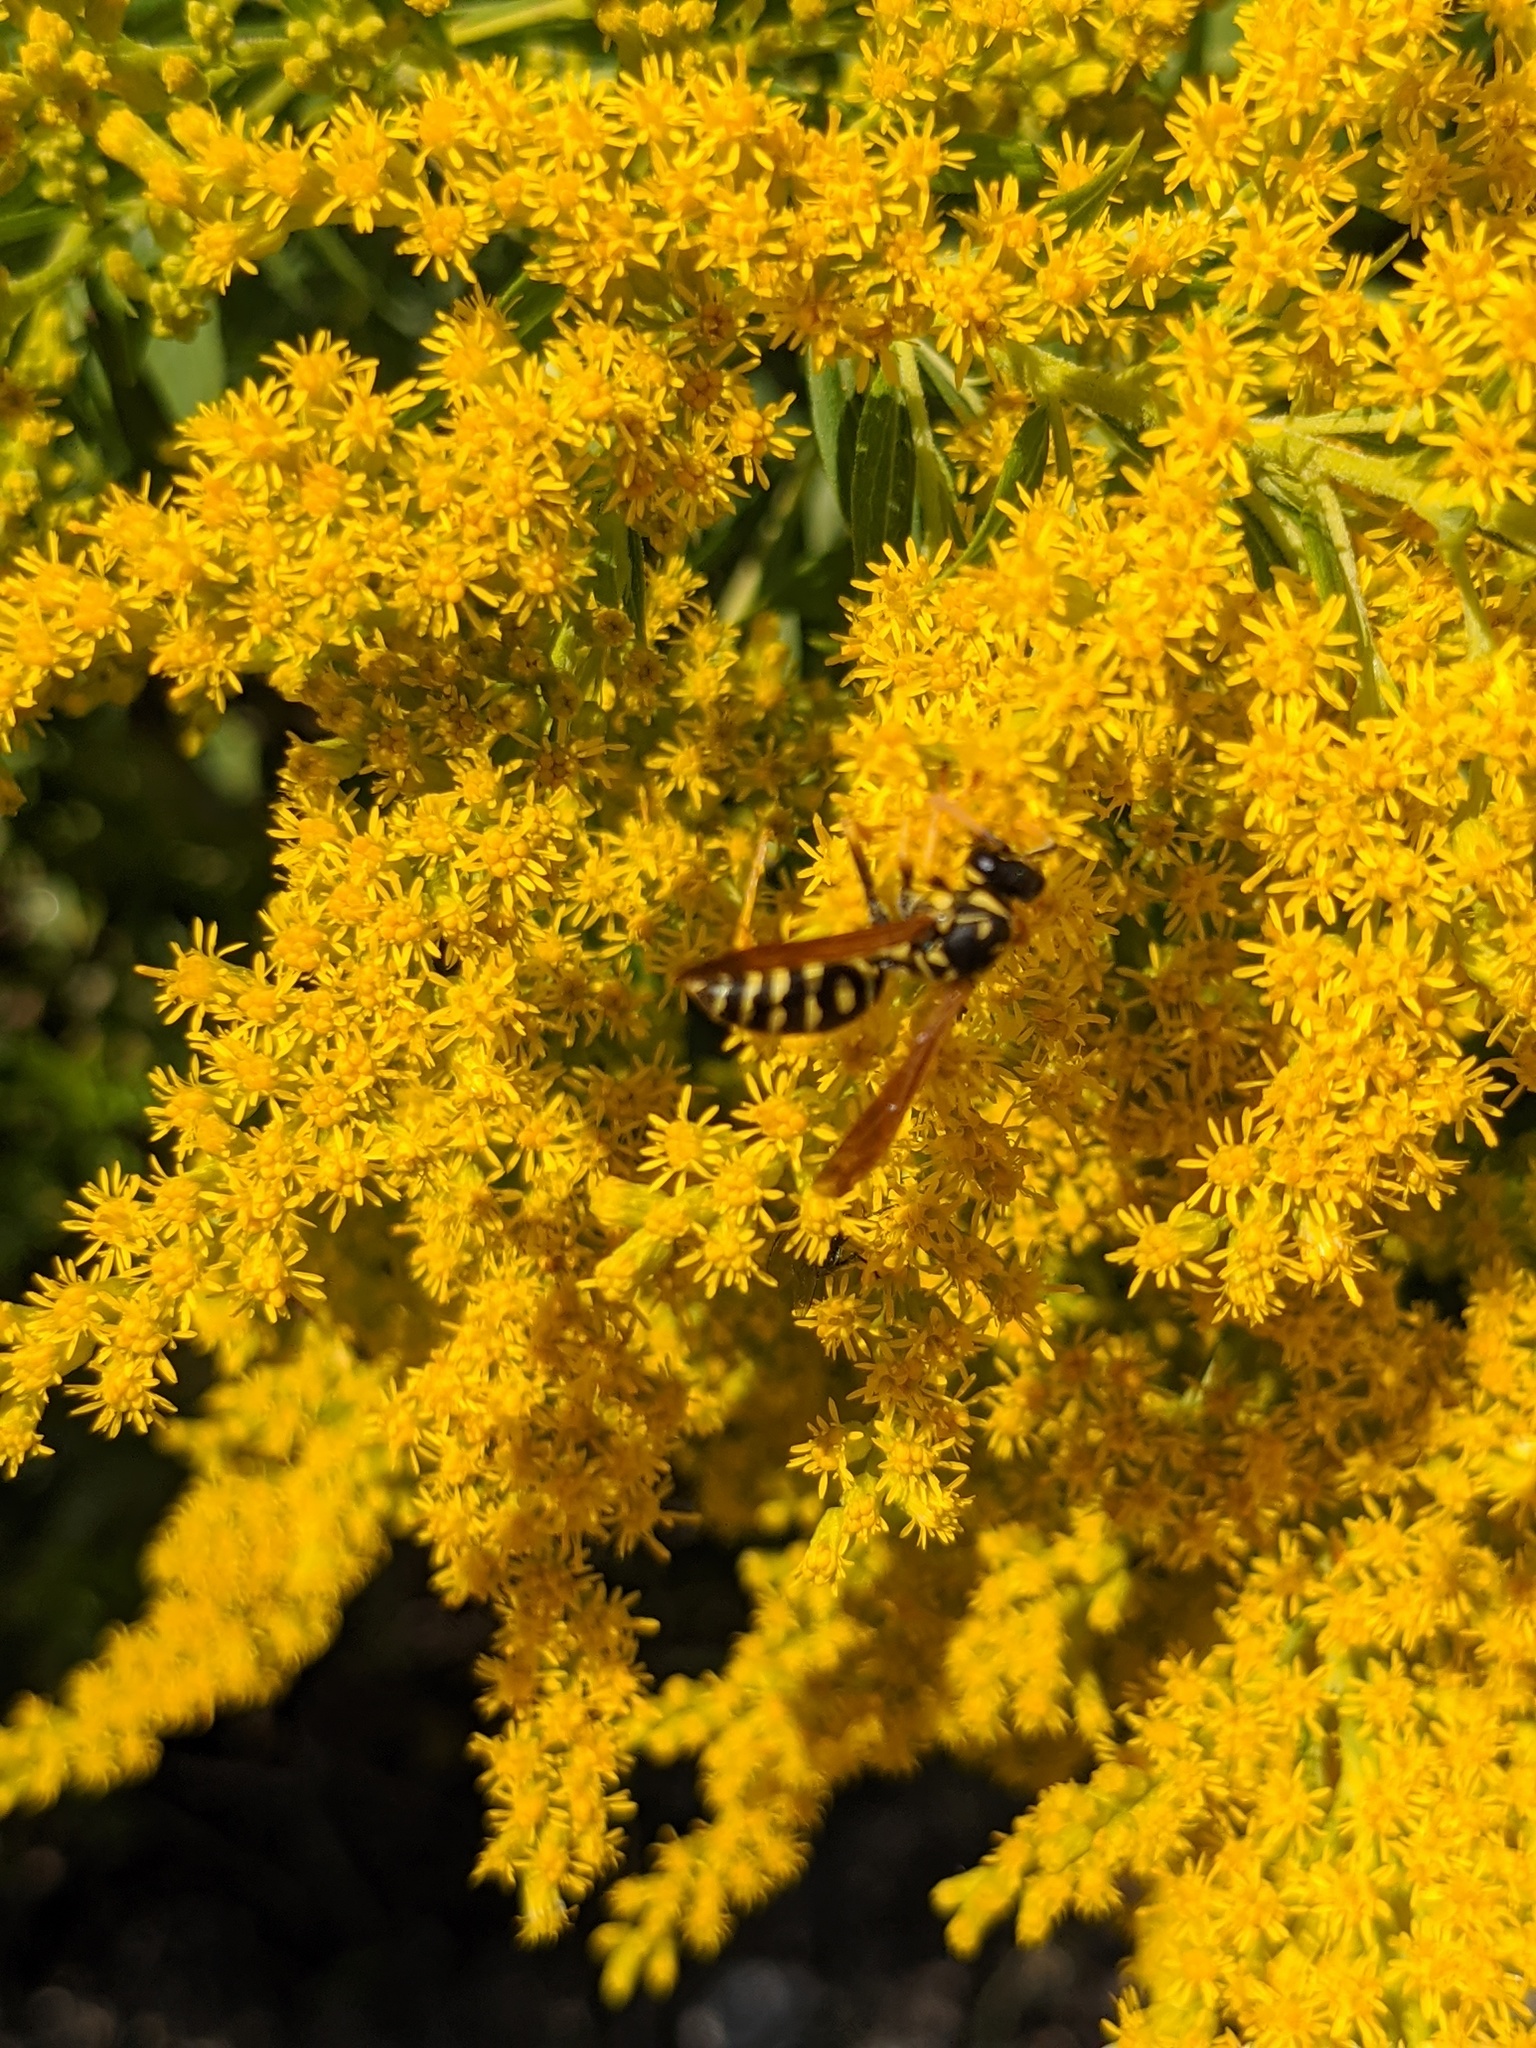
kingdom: Animalia
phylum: Arthropoda
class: Insecta
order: Hymenoptera
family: Eumenidae
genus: Polistes
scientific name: Polistes dominula
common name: Paper wasp
